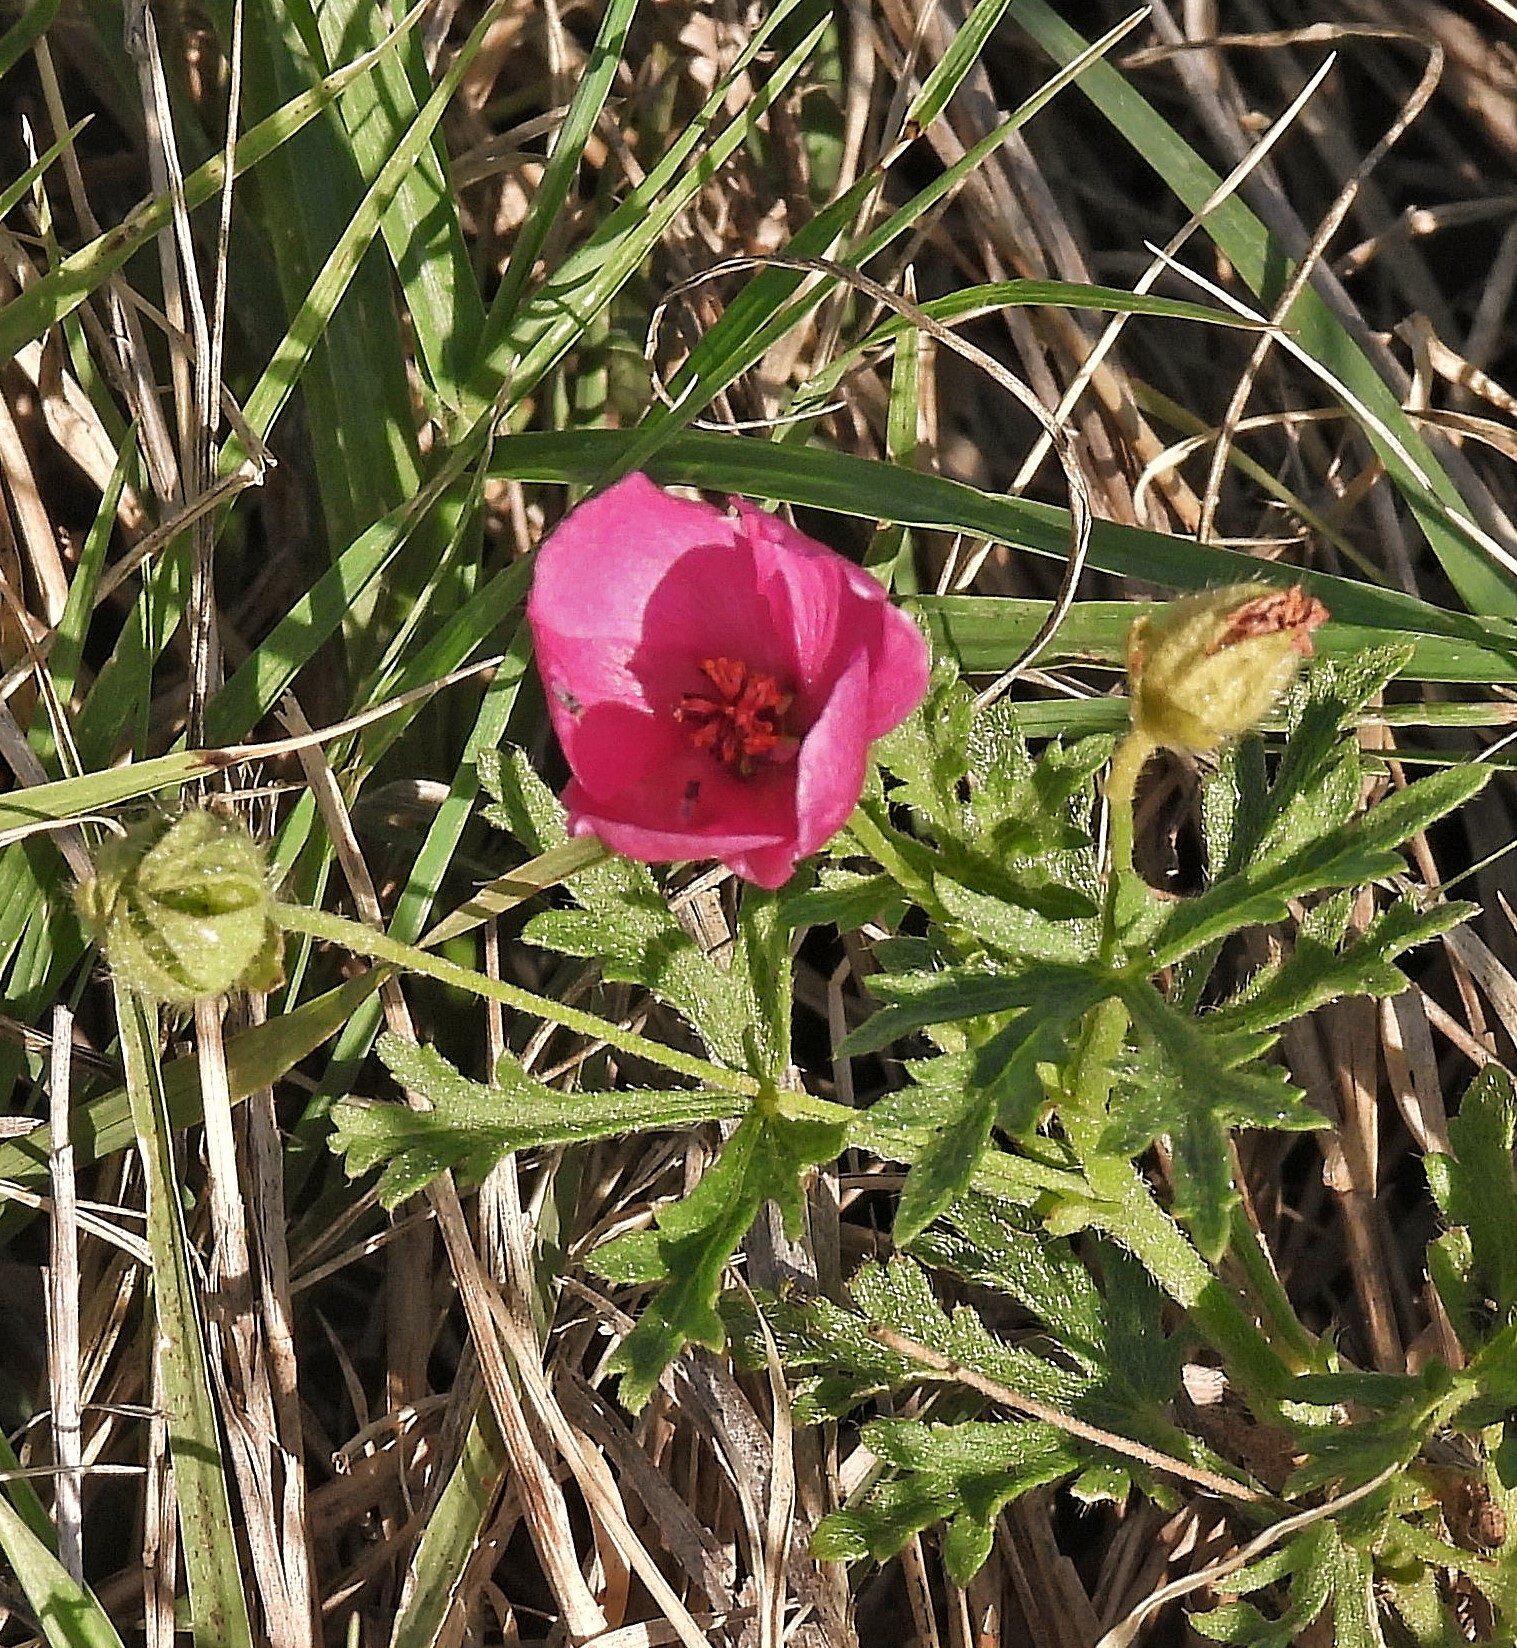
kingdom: Plantae
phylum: Tracheophyta
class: Magnoliopsida
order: Malvales
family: Malvaceae
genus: Modiolastrum
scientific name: Modiolastrum gilliesii
